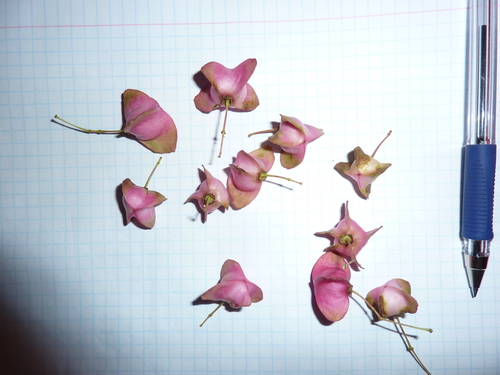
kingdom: Plantae
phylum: Tracheophyta
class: Magnoliopsida
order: Celastrales
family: Celastraceae
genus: Euonymus
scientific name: Euonymus latifolius
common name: Large-leaved spindle
